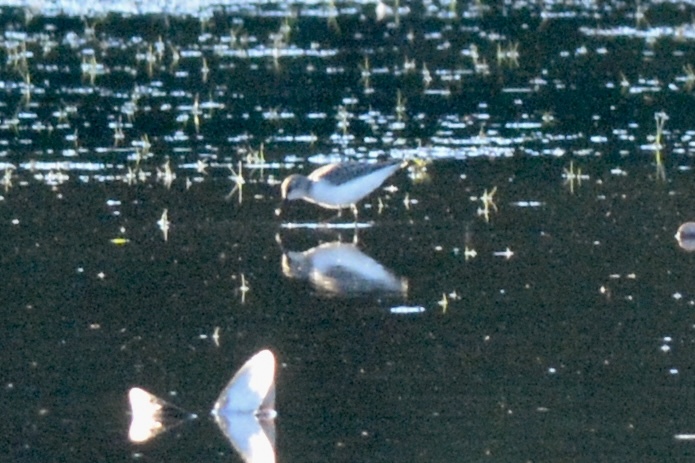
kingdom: Animalia
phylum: Chordata
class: Aves
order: Charadriiformes
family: Scolopacidae
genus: Calidris
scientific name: Calidris pusilla
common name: Semipalmated sandpiper
